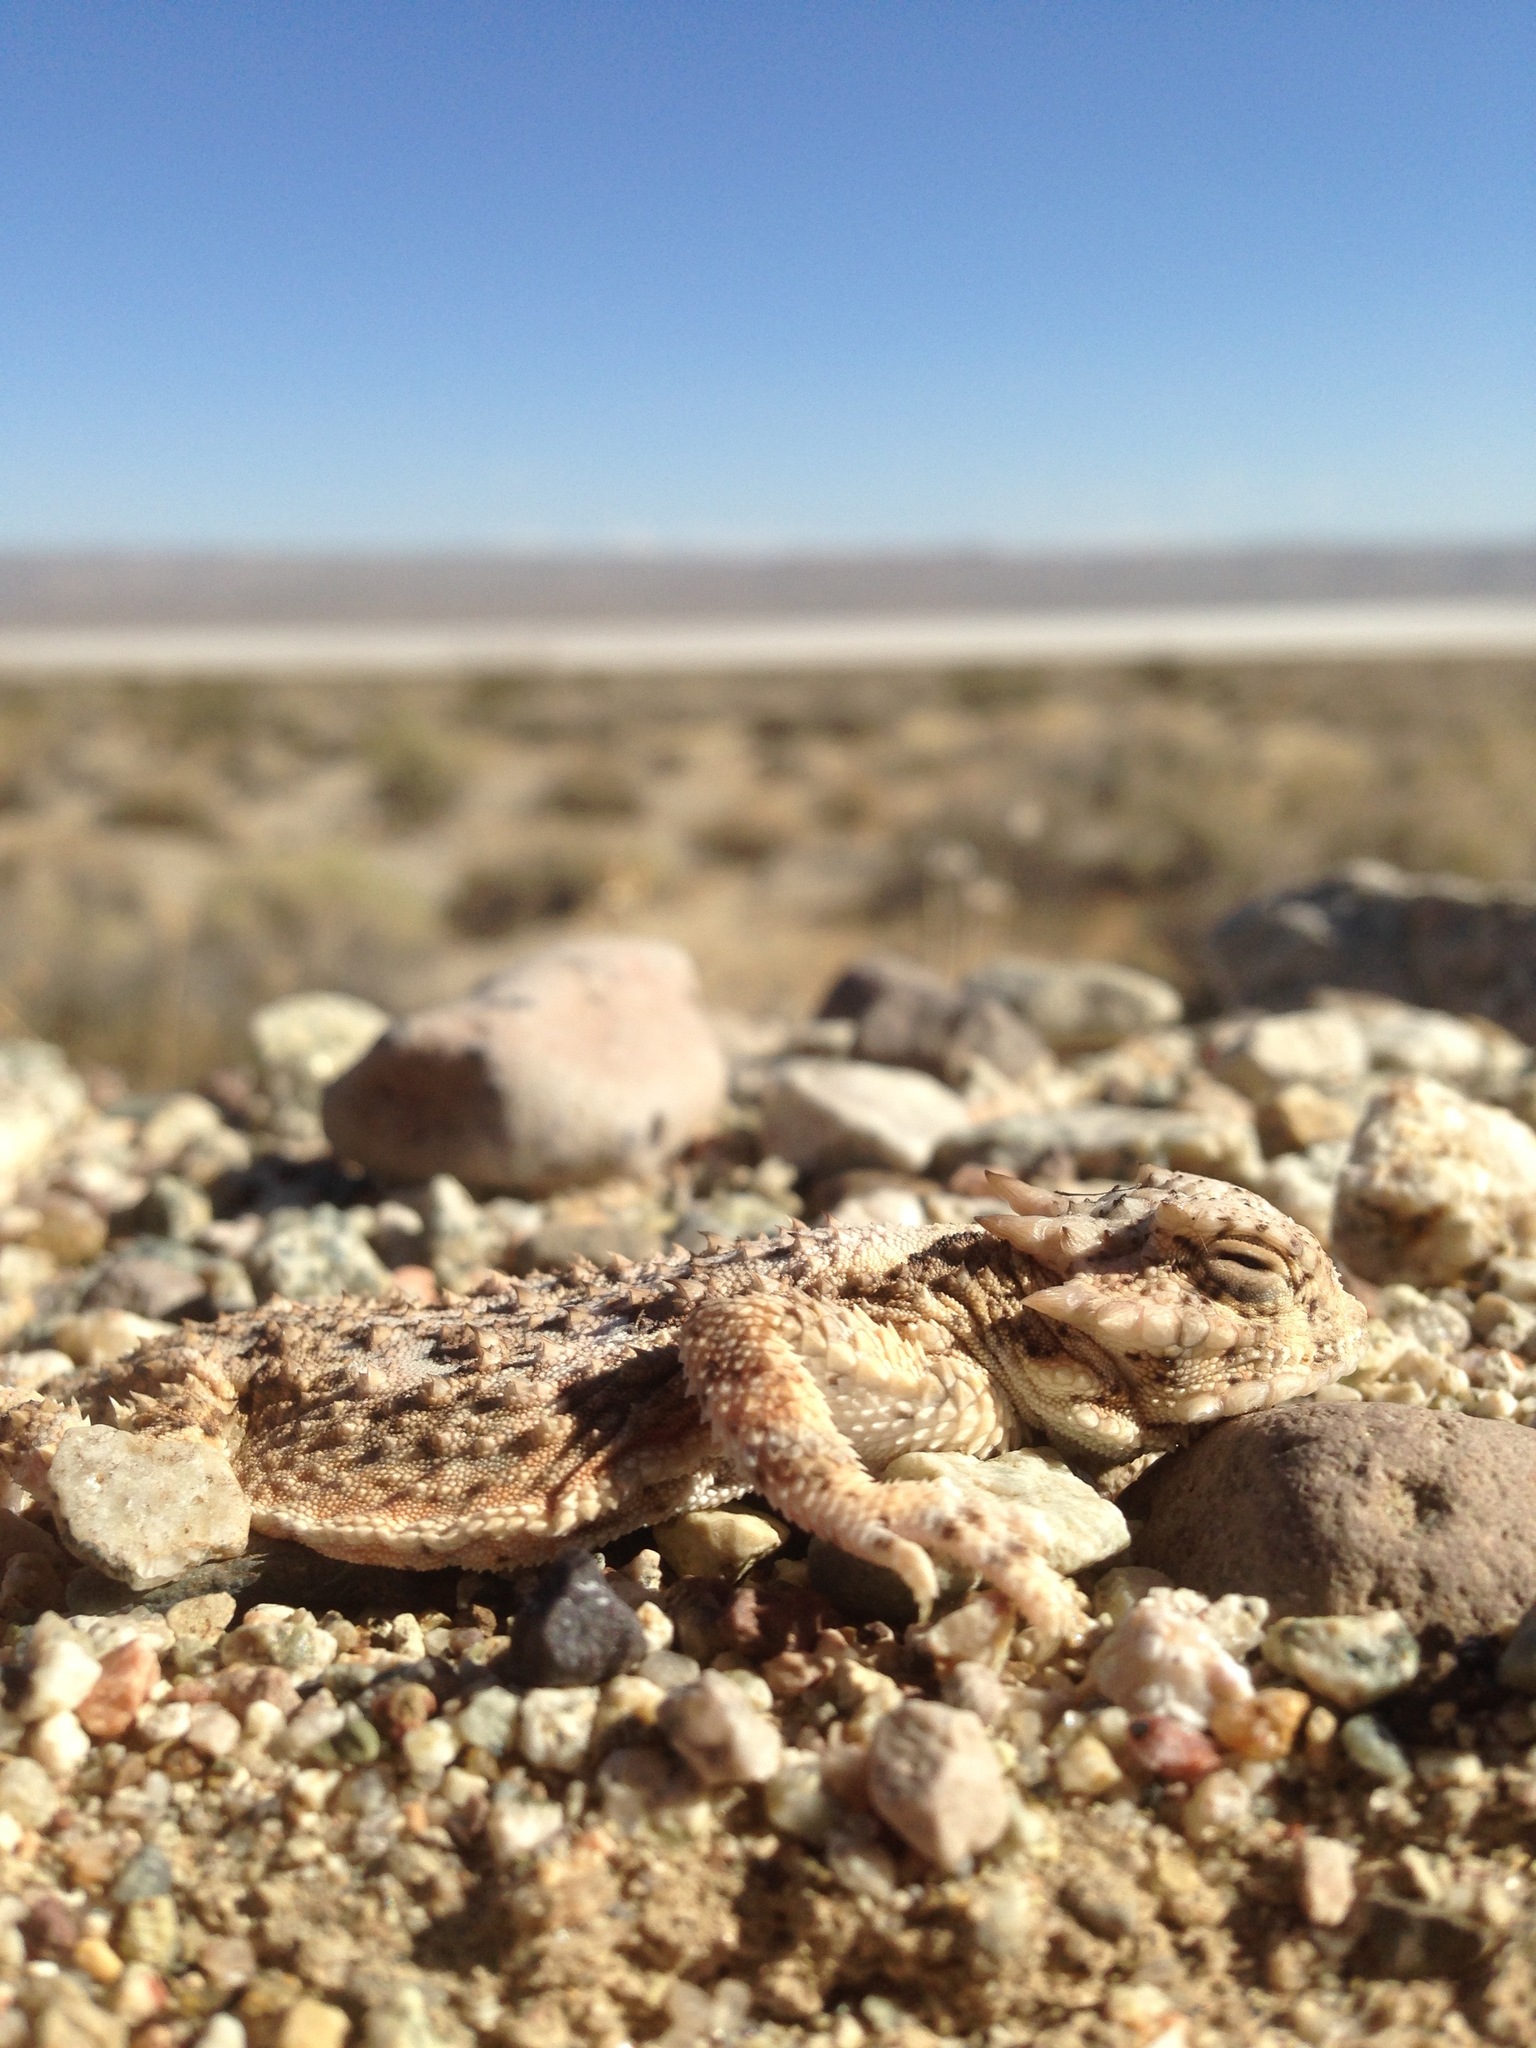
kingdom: Animalia
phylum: Chordata
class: Squamata
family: Phrynosomatidae
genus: Phrynosoma
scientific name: Phrynosoma platyrhinos
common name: Desert horned lizard
